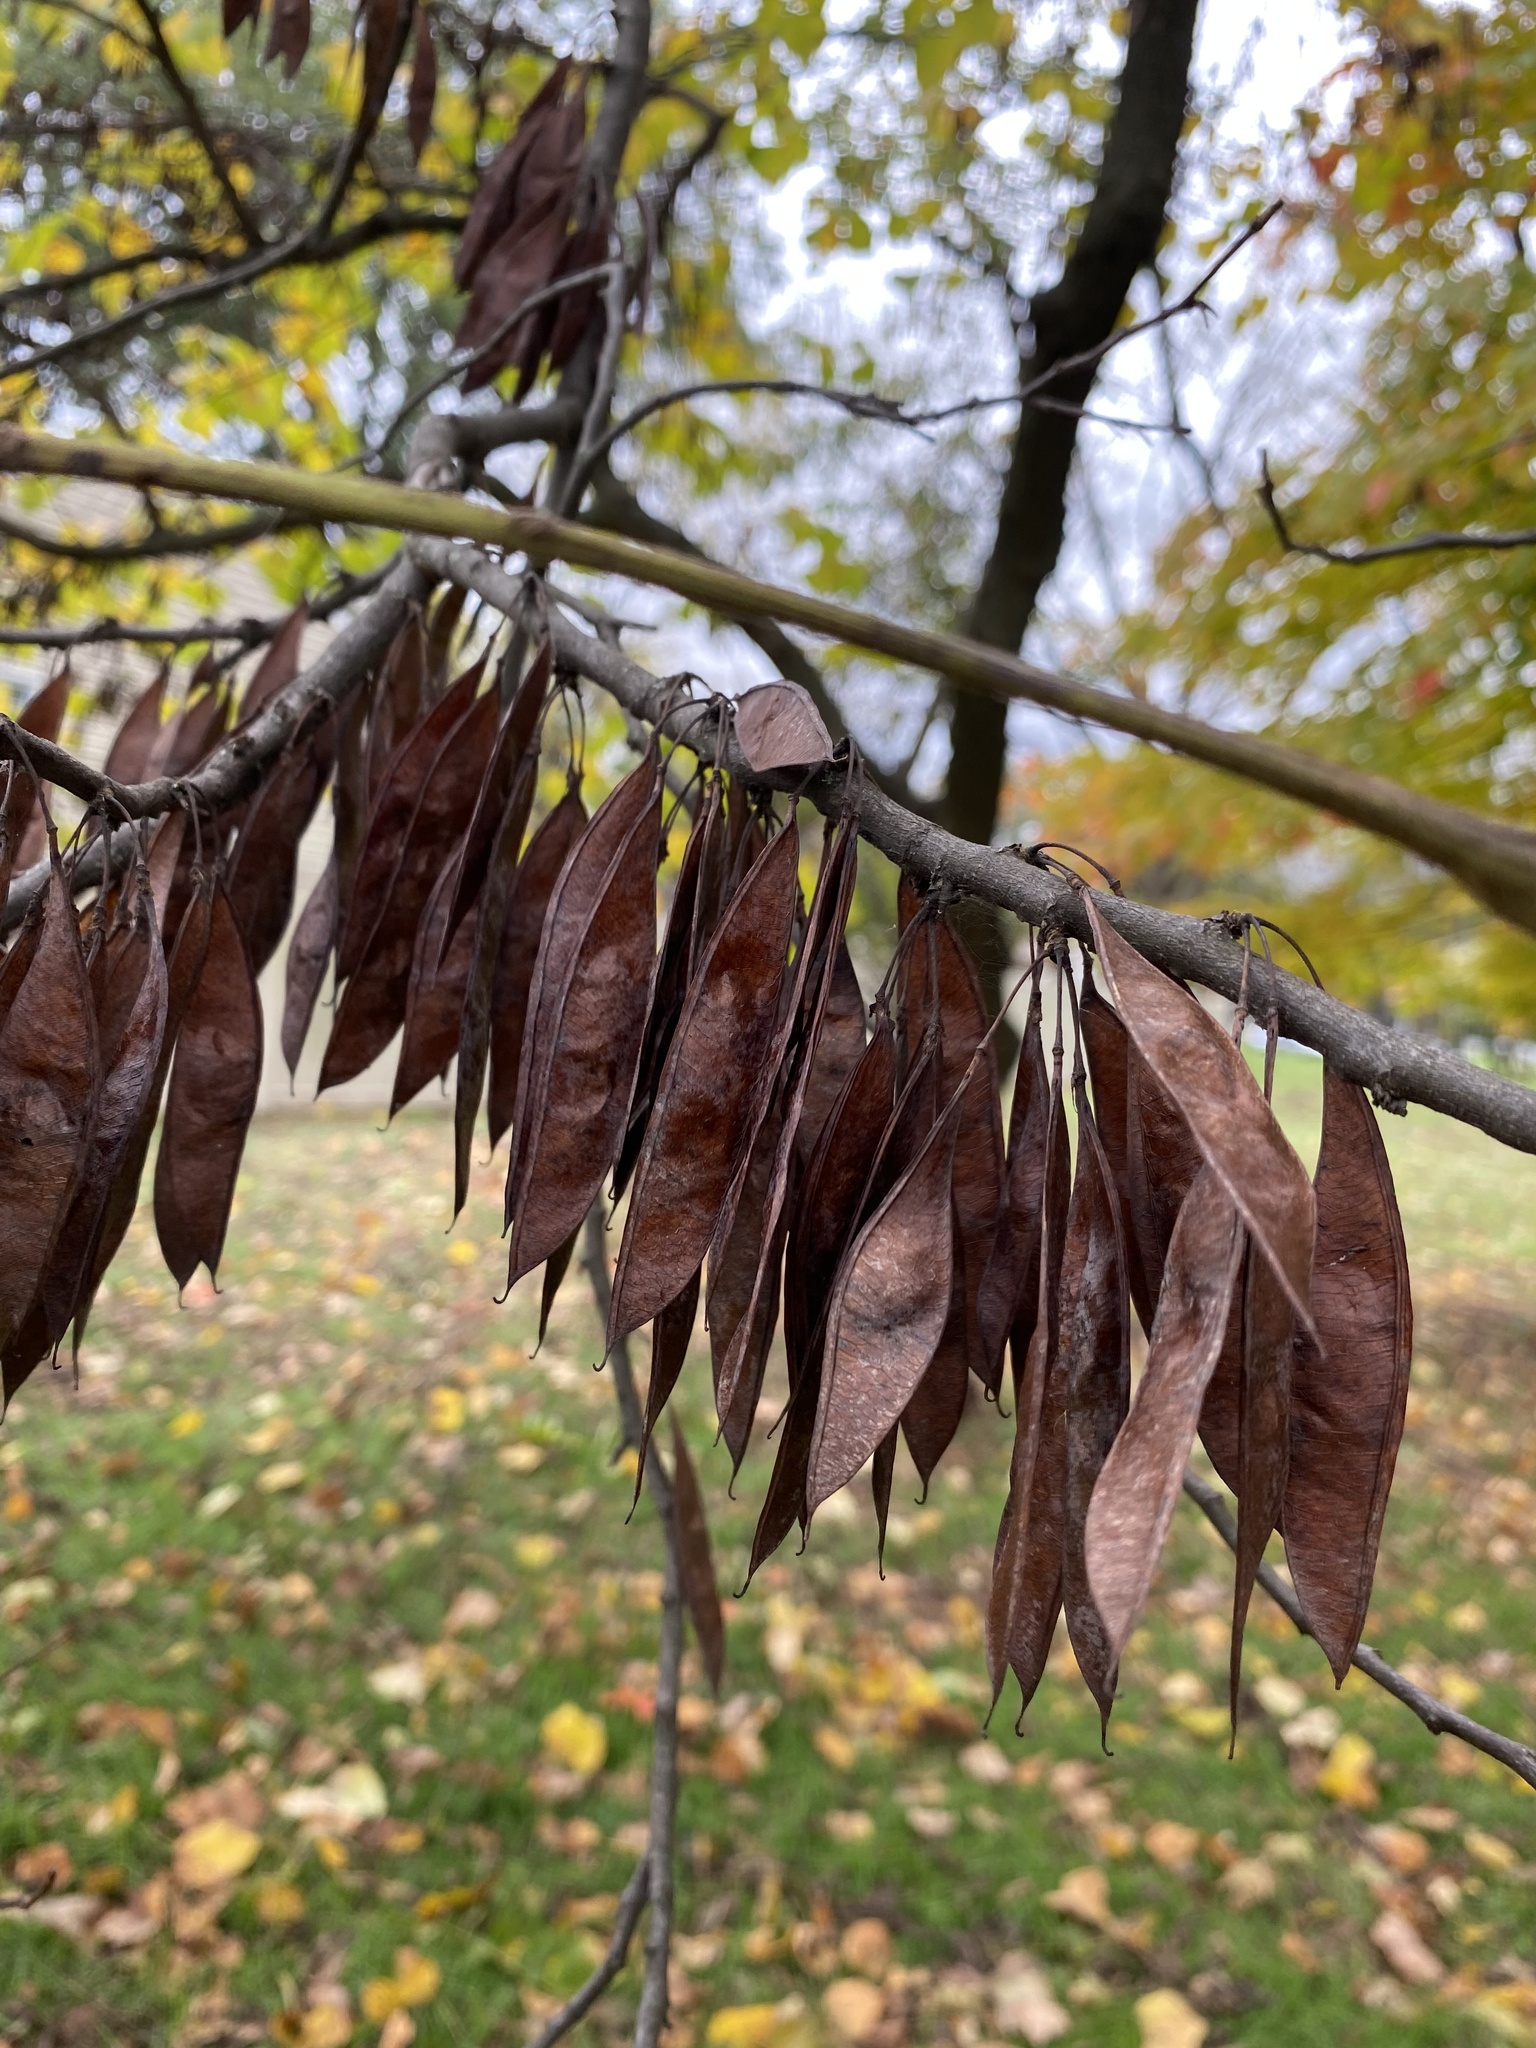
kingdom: Plantae
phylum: Tracheophyta
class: Magnoliopsida
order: Fabales
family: Fabaceae
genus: Cercis
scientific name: Cercis canadensis
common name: Eastern redbud
